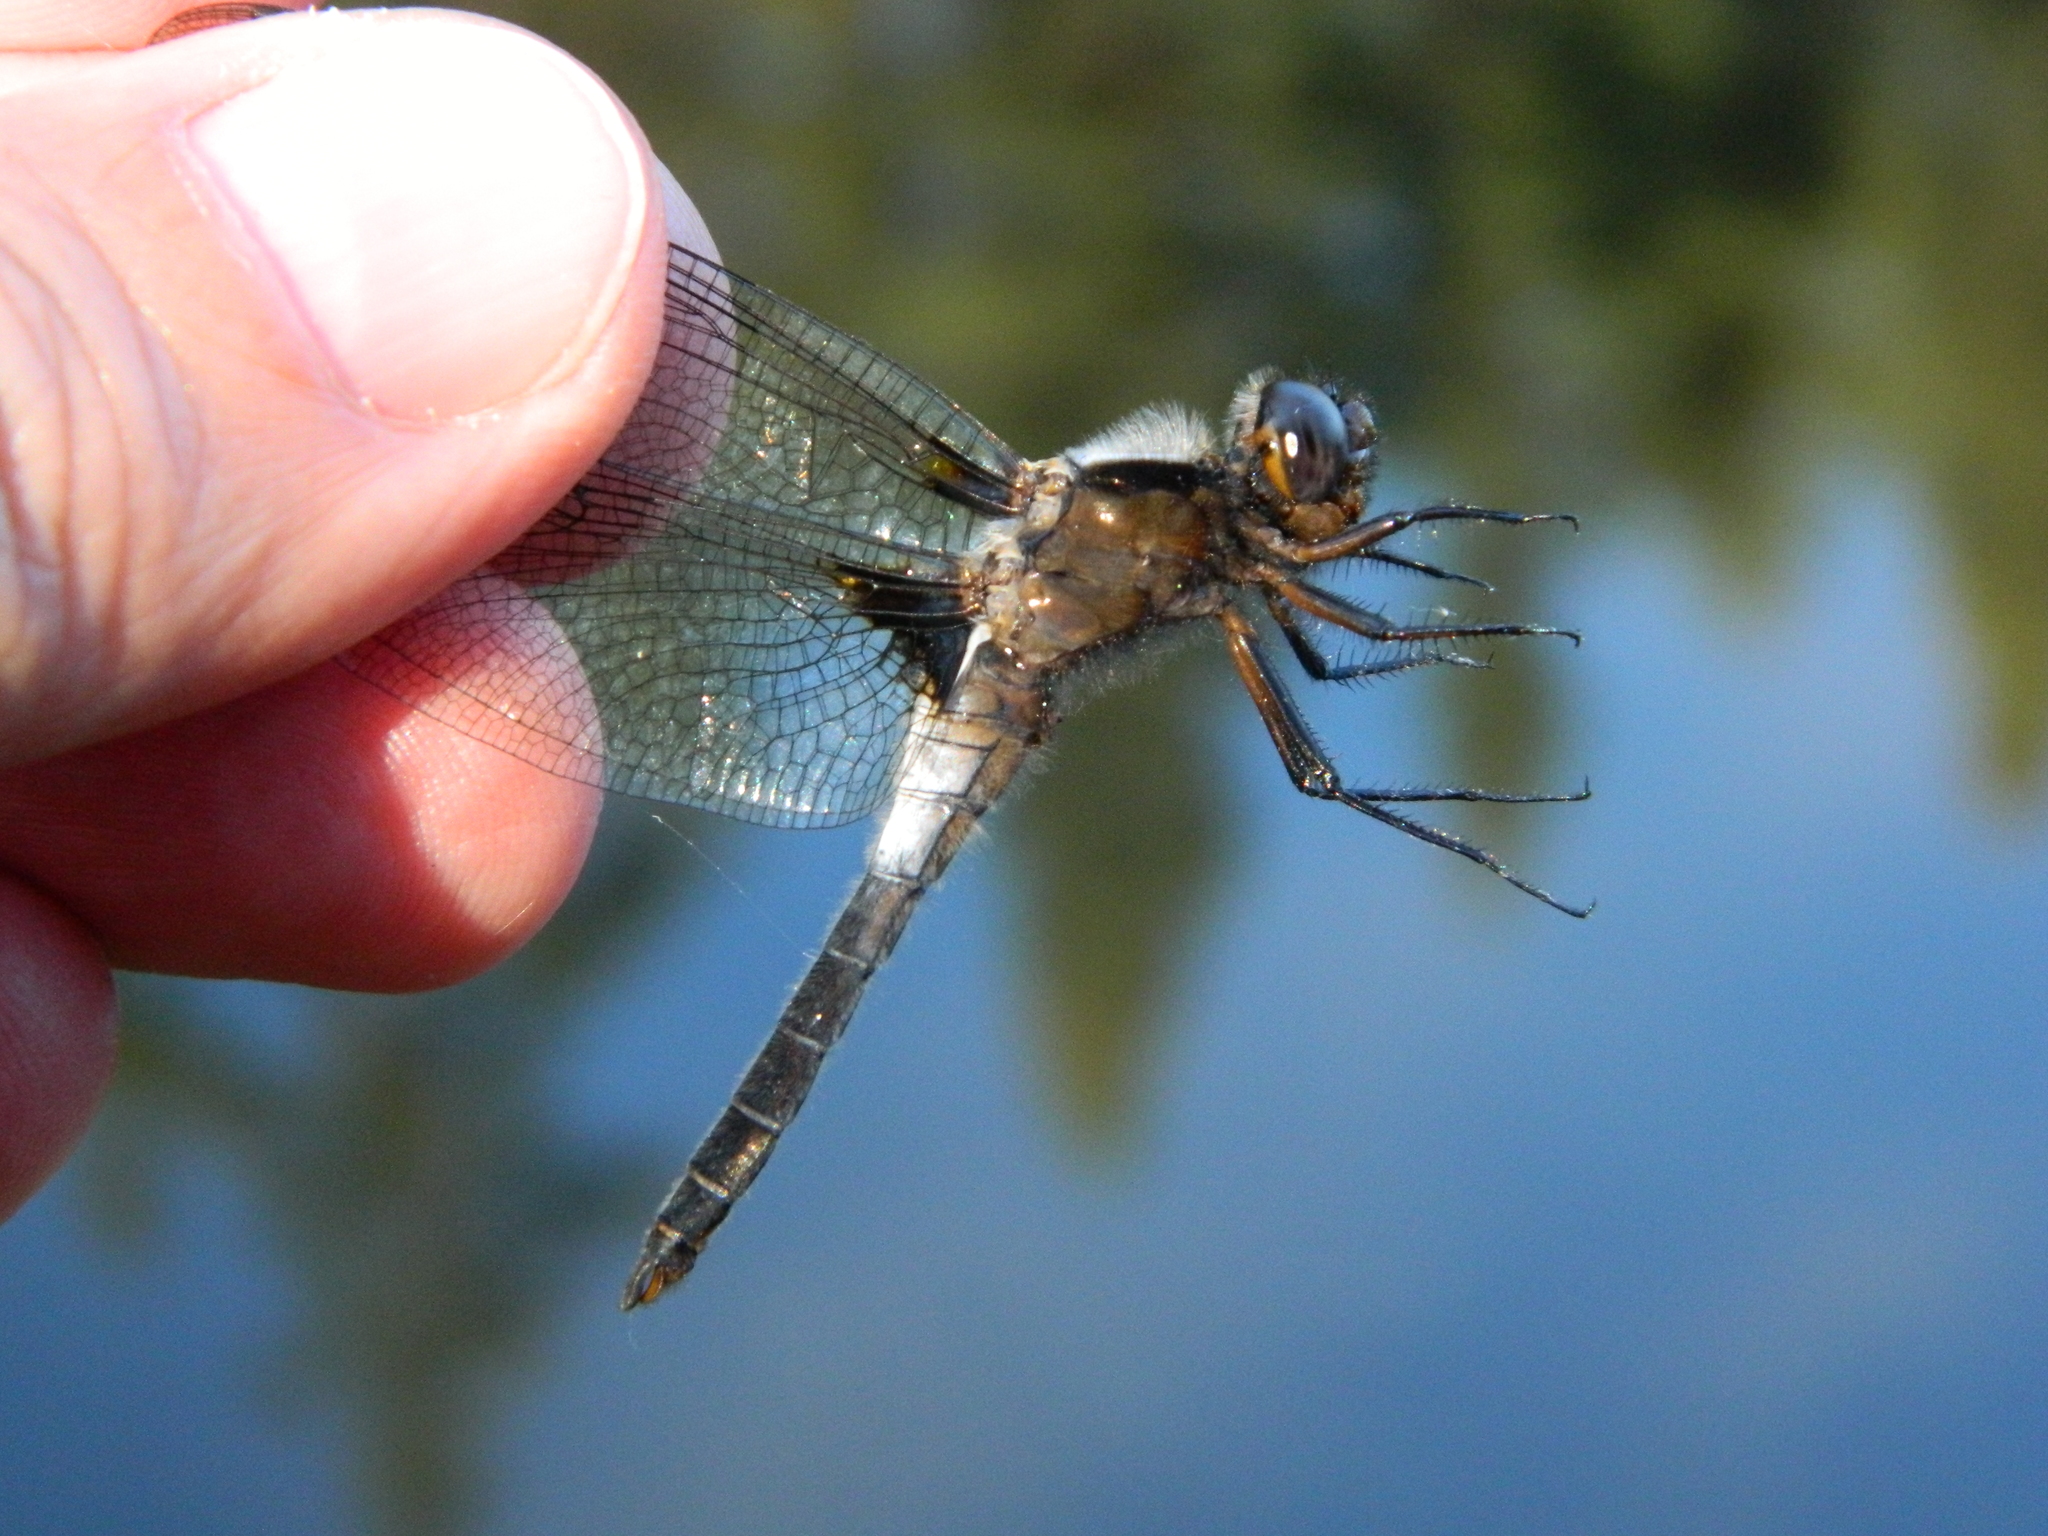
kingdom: Animalia
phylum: Arthropoda
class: Insecta
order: Odonata
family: Libellulidae
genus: Ladona
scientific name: Ladona julia
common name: Chalk-fronted corporal
